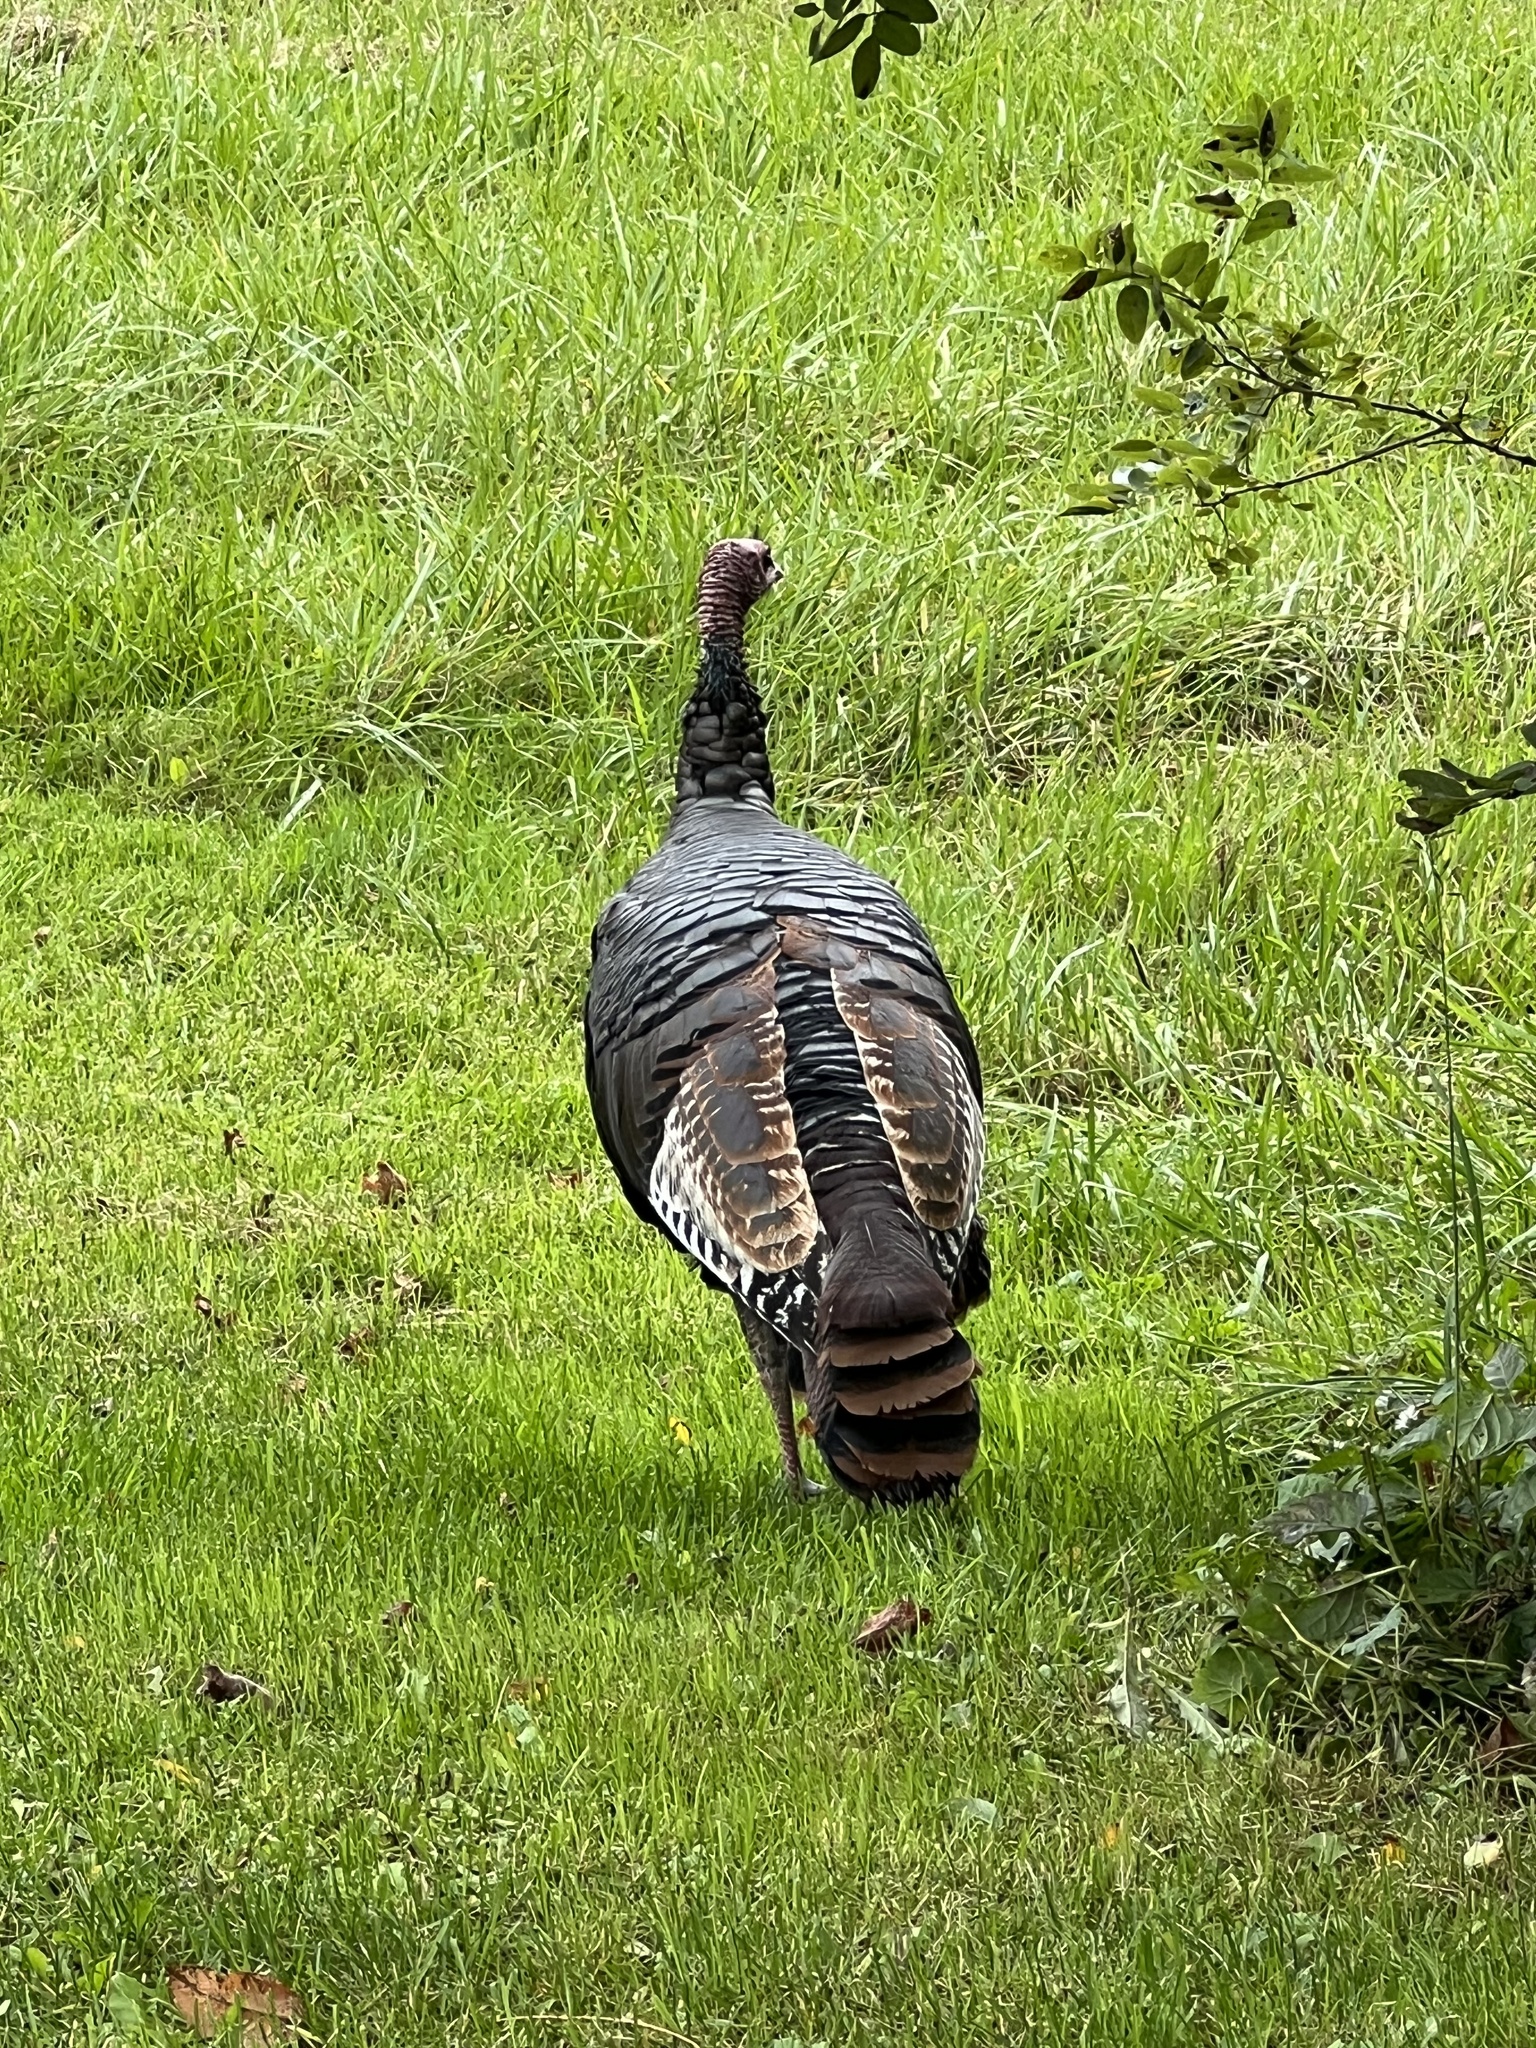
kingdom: Animalia
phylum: Chordata
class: Aves
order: Galliformes
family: Phasianidae
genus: Meleagris
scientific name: Meleagris gallopavo
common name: Wild turkey
